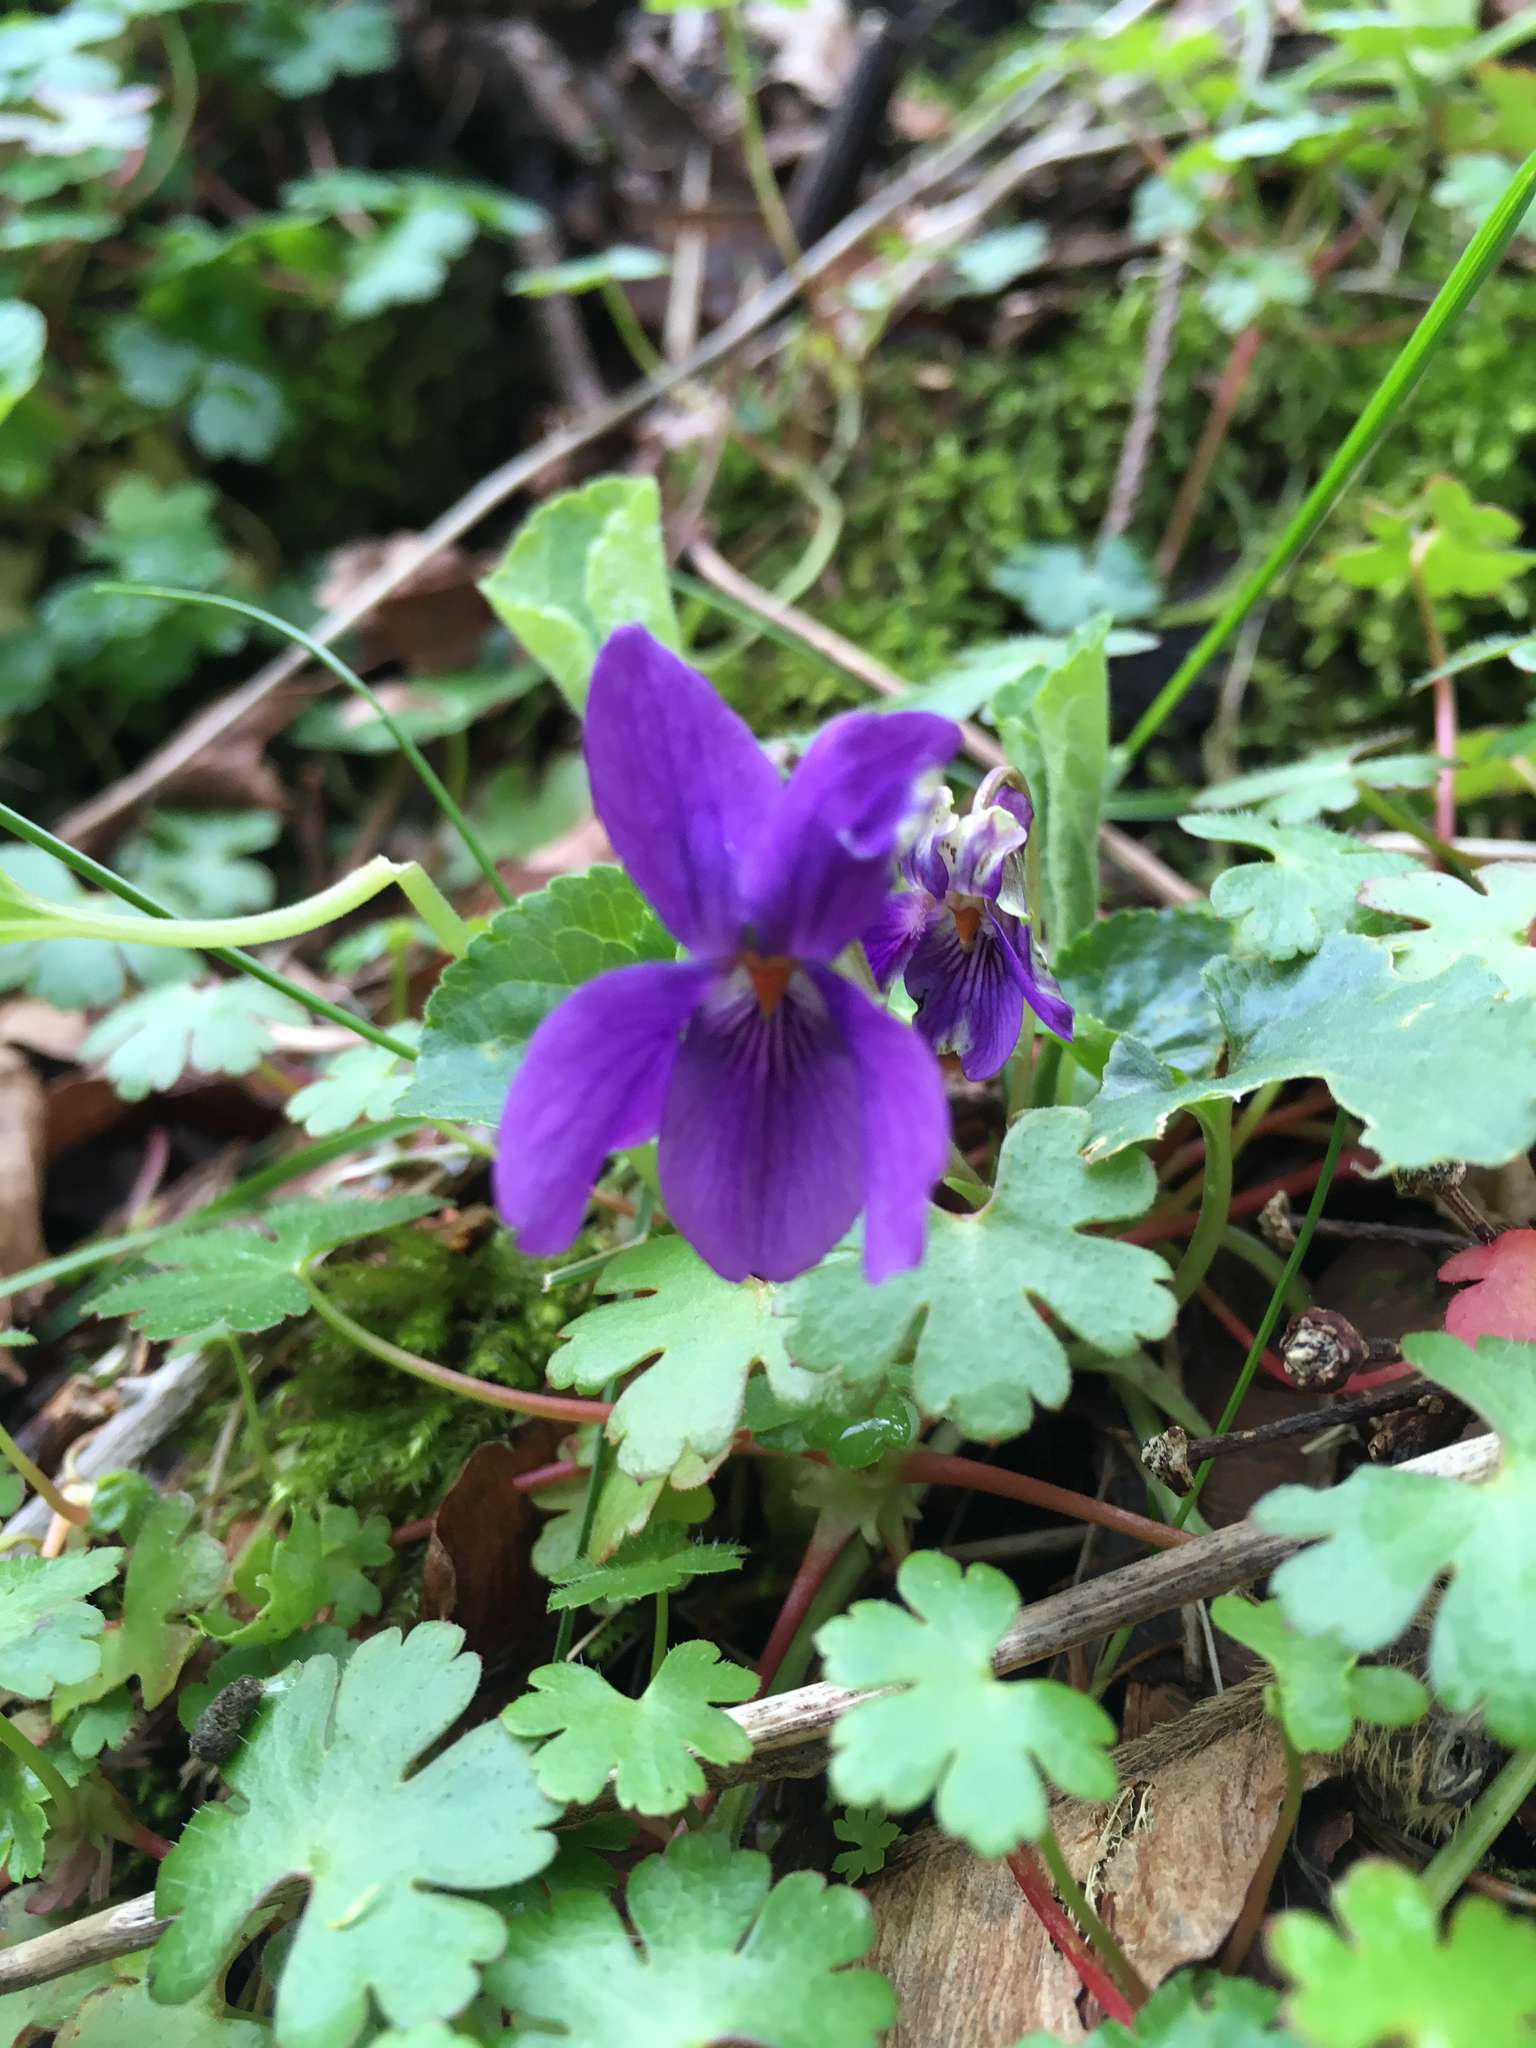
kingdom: Plantae
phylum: Tracheophyta
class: Magnoliopsida
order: Malpighiales
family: Violaceae
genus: Viola
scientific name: Viola odorata
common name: Sweet violet
